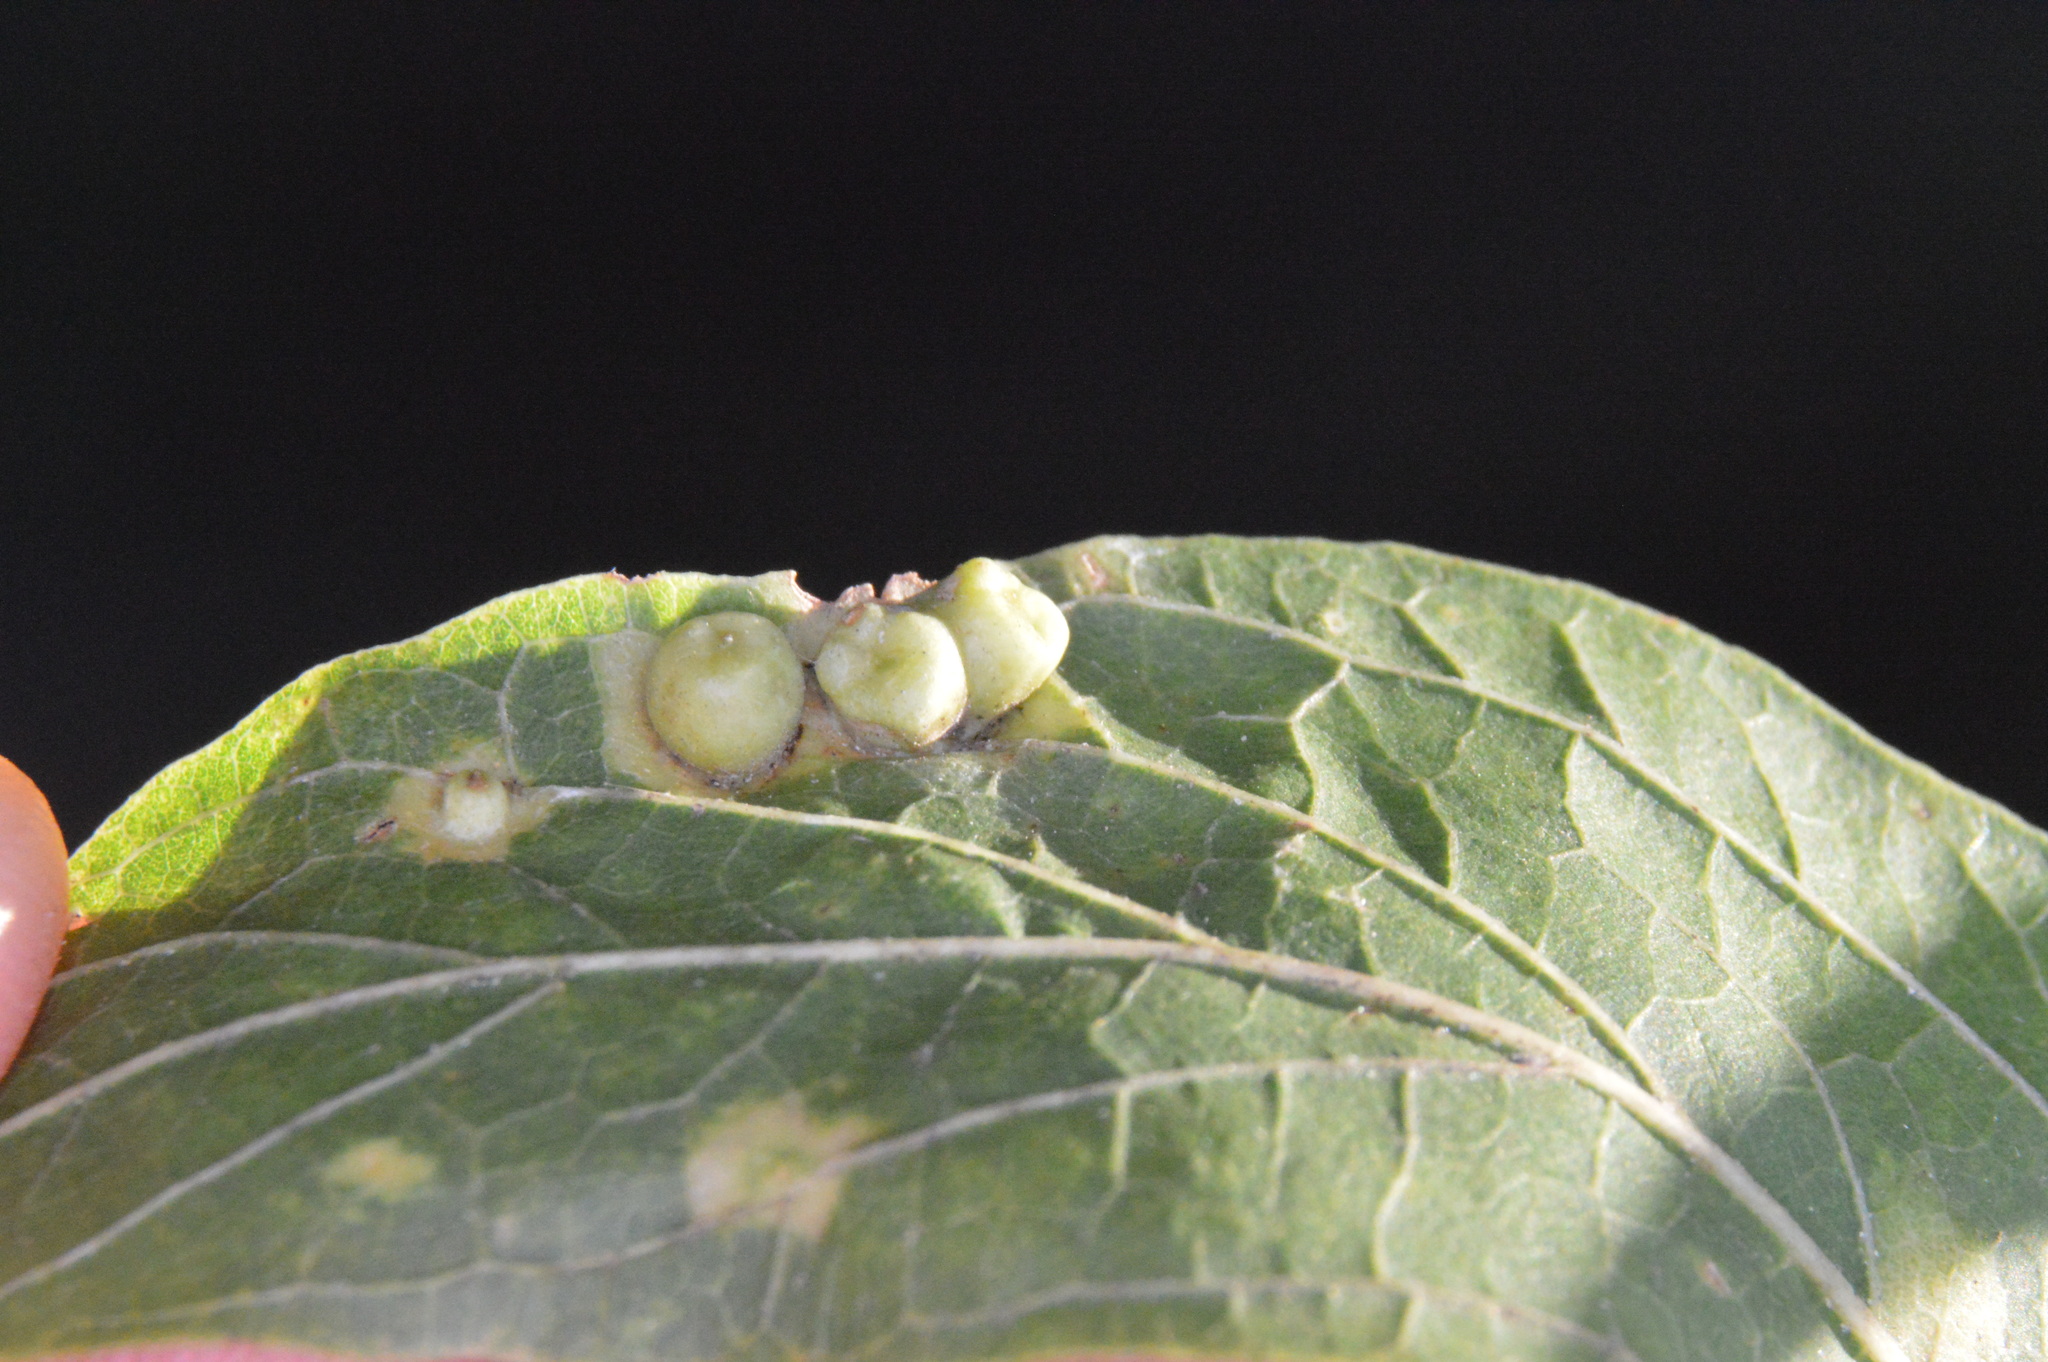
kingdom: Animalia
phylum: Arthropoda
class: Insecta
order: Hemiptera
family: Aphalaridae
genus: Pachypsylla
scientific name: Pachypsylla celtidismamma
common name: Hackberry nipplegall psyllid
